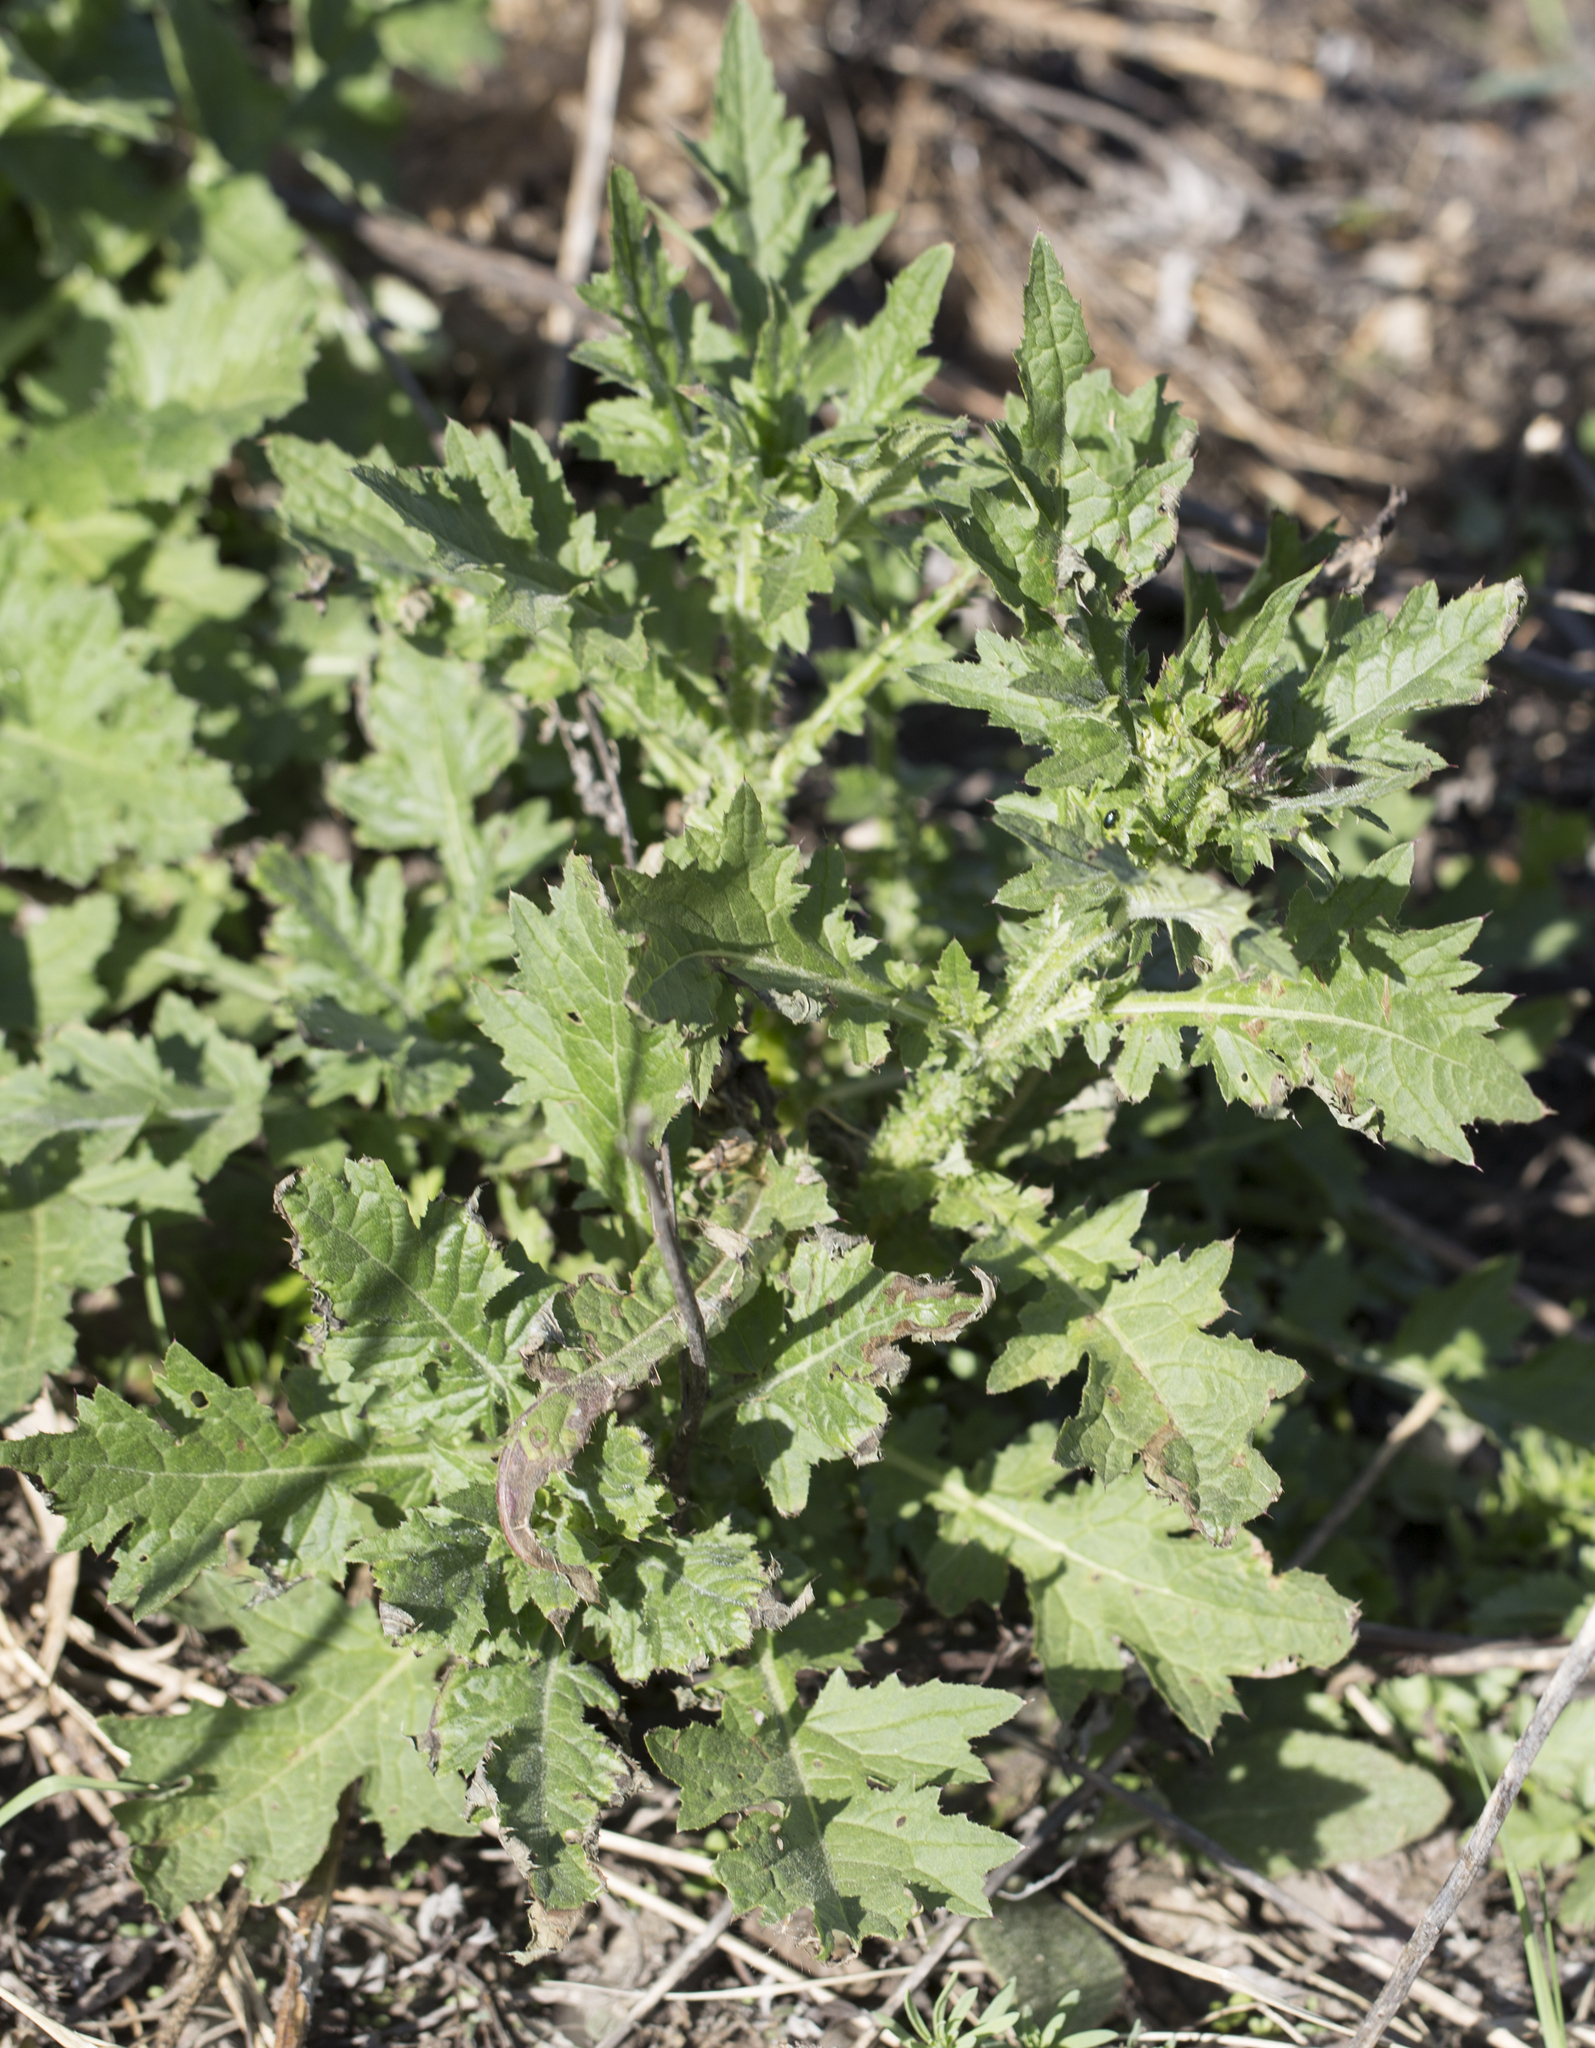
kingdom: Plantae
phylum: Tracheophyta
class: Magnoliopsida
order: Asterales
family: Asteraceae
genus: Carduus
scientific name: Carduus crispus
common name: Welted thistle
